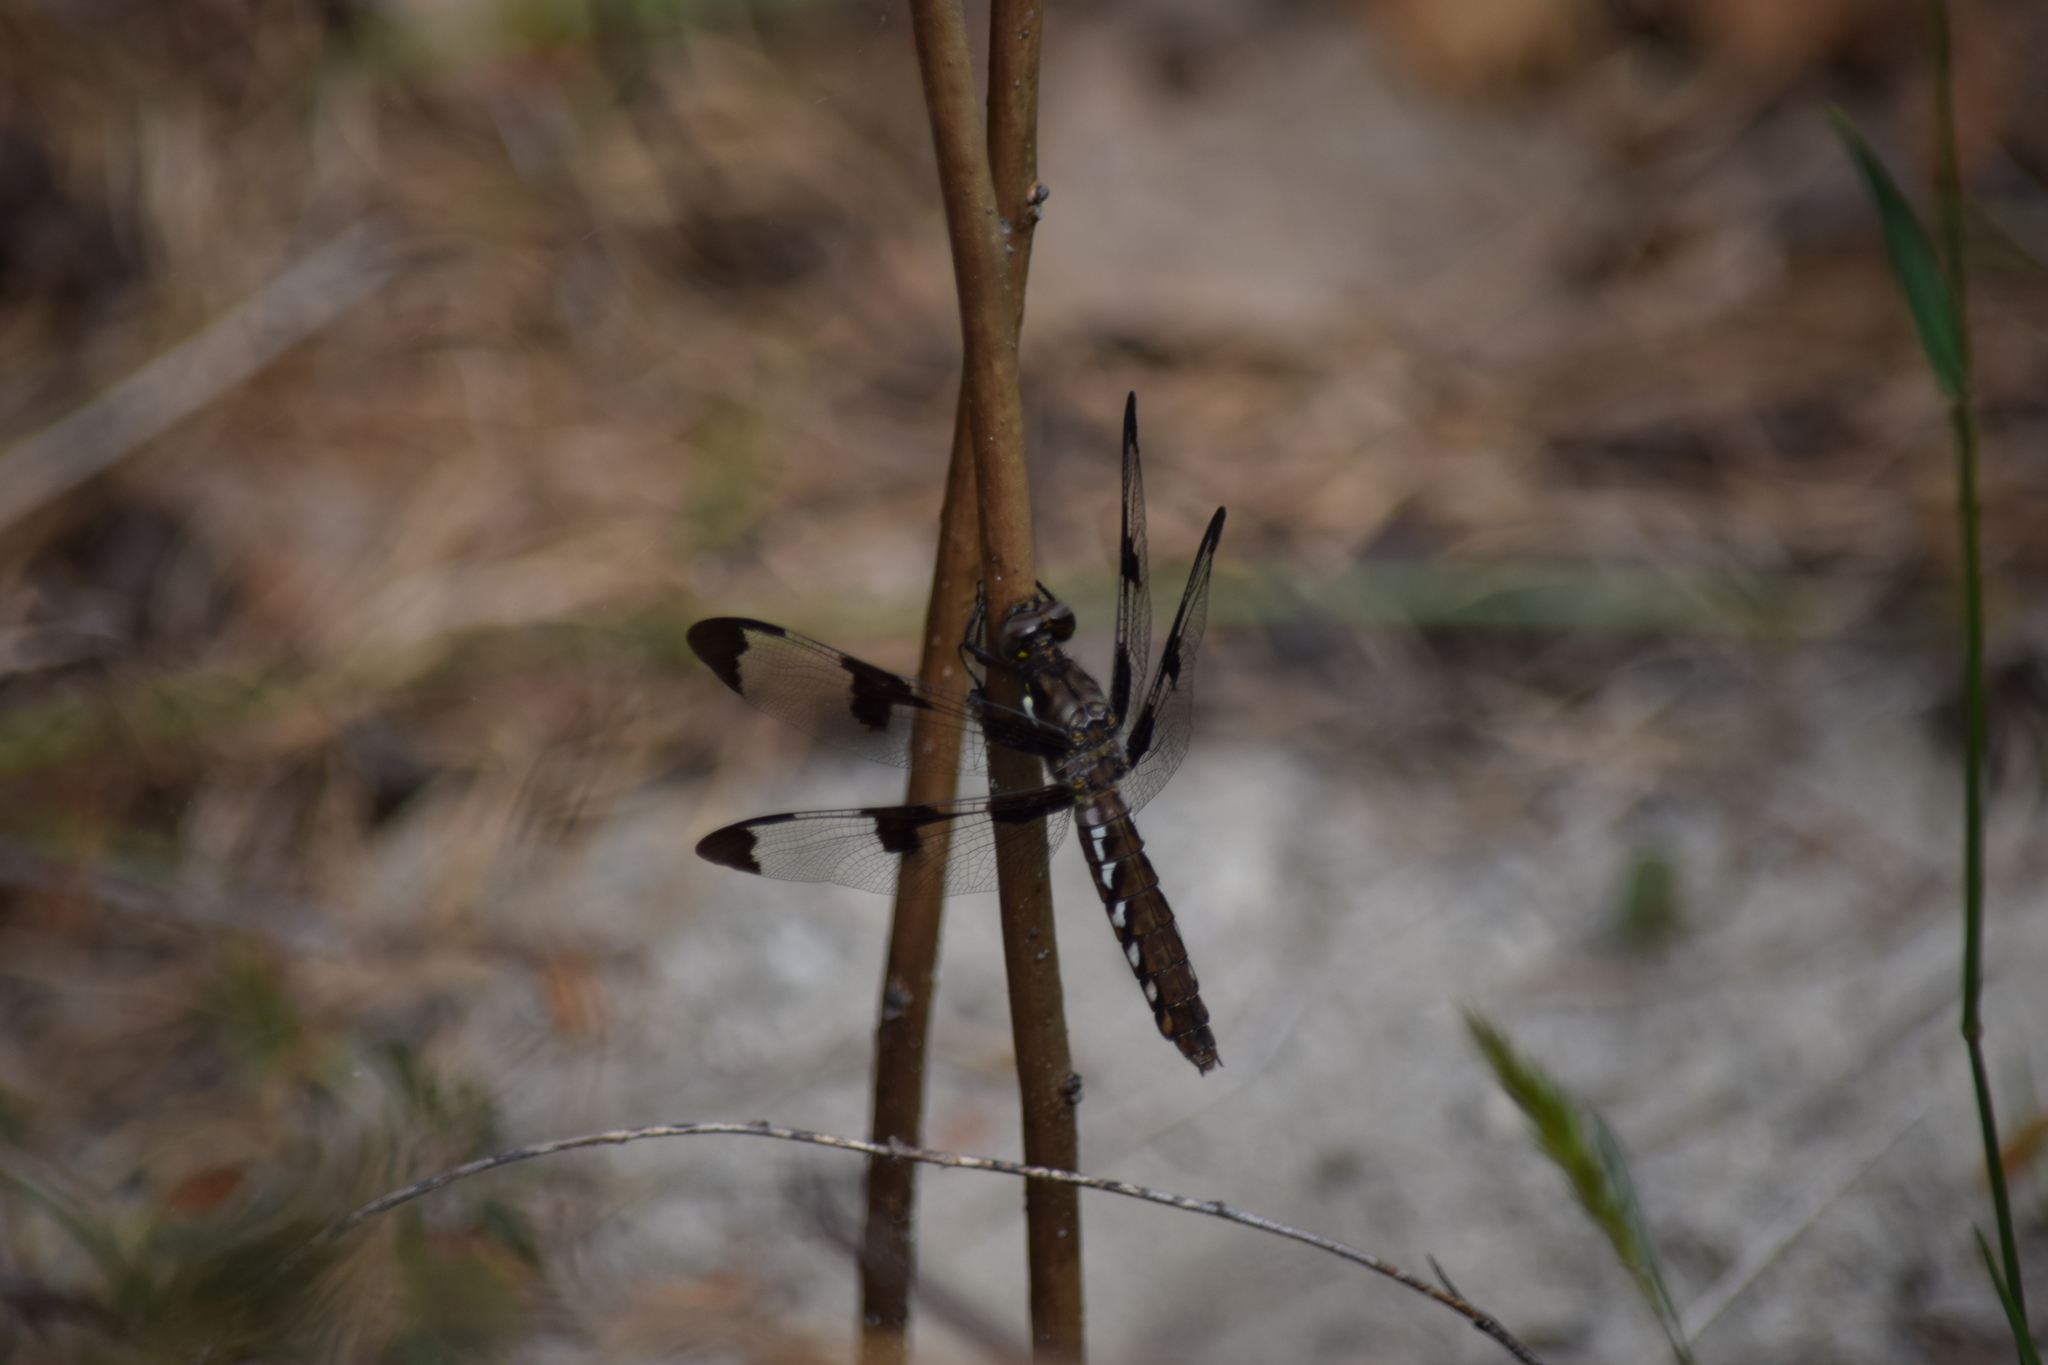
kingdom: Animalia
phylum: Arthropoda
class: Insecta
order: Odonata
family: Libellulidae
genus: Plathemis
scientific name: Plathemis lydia
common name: Common whitetail
